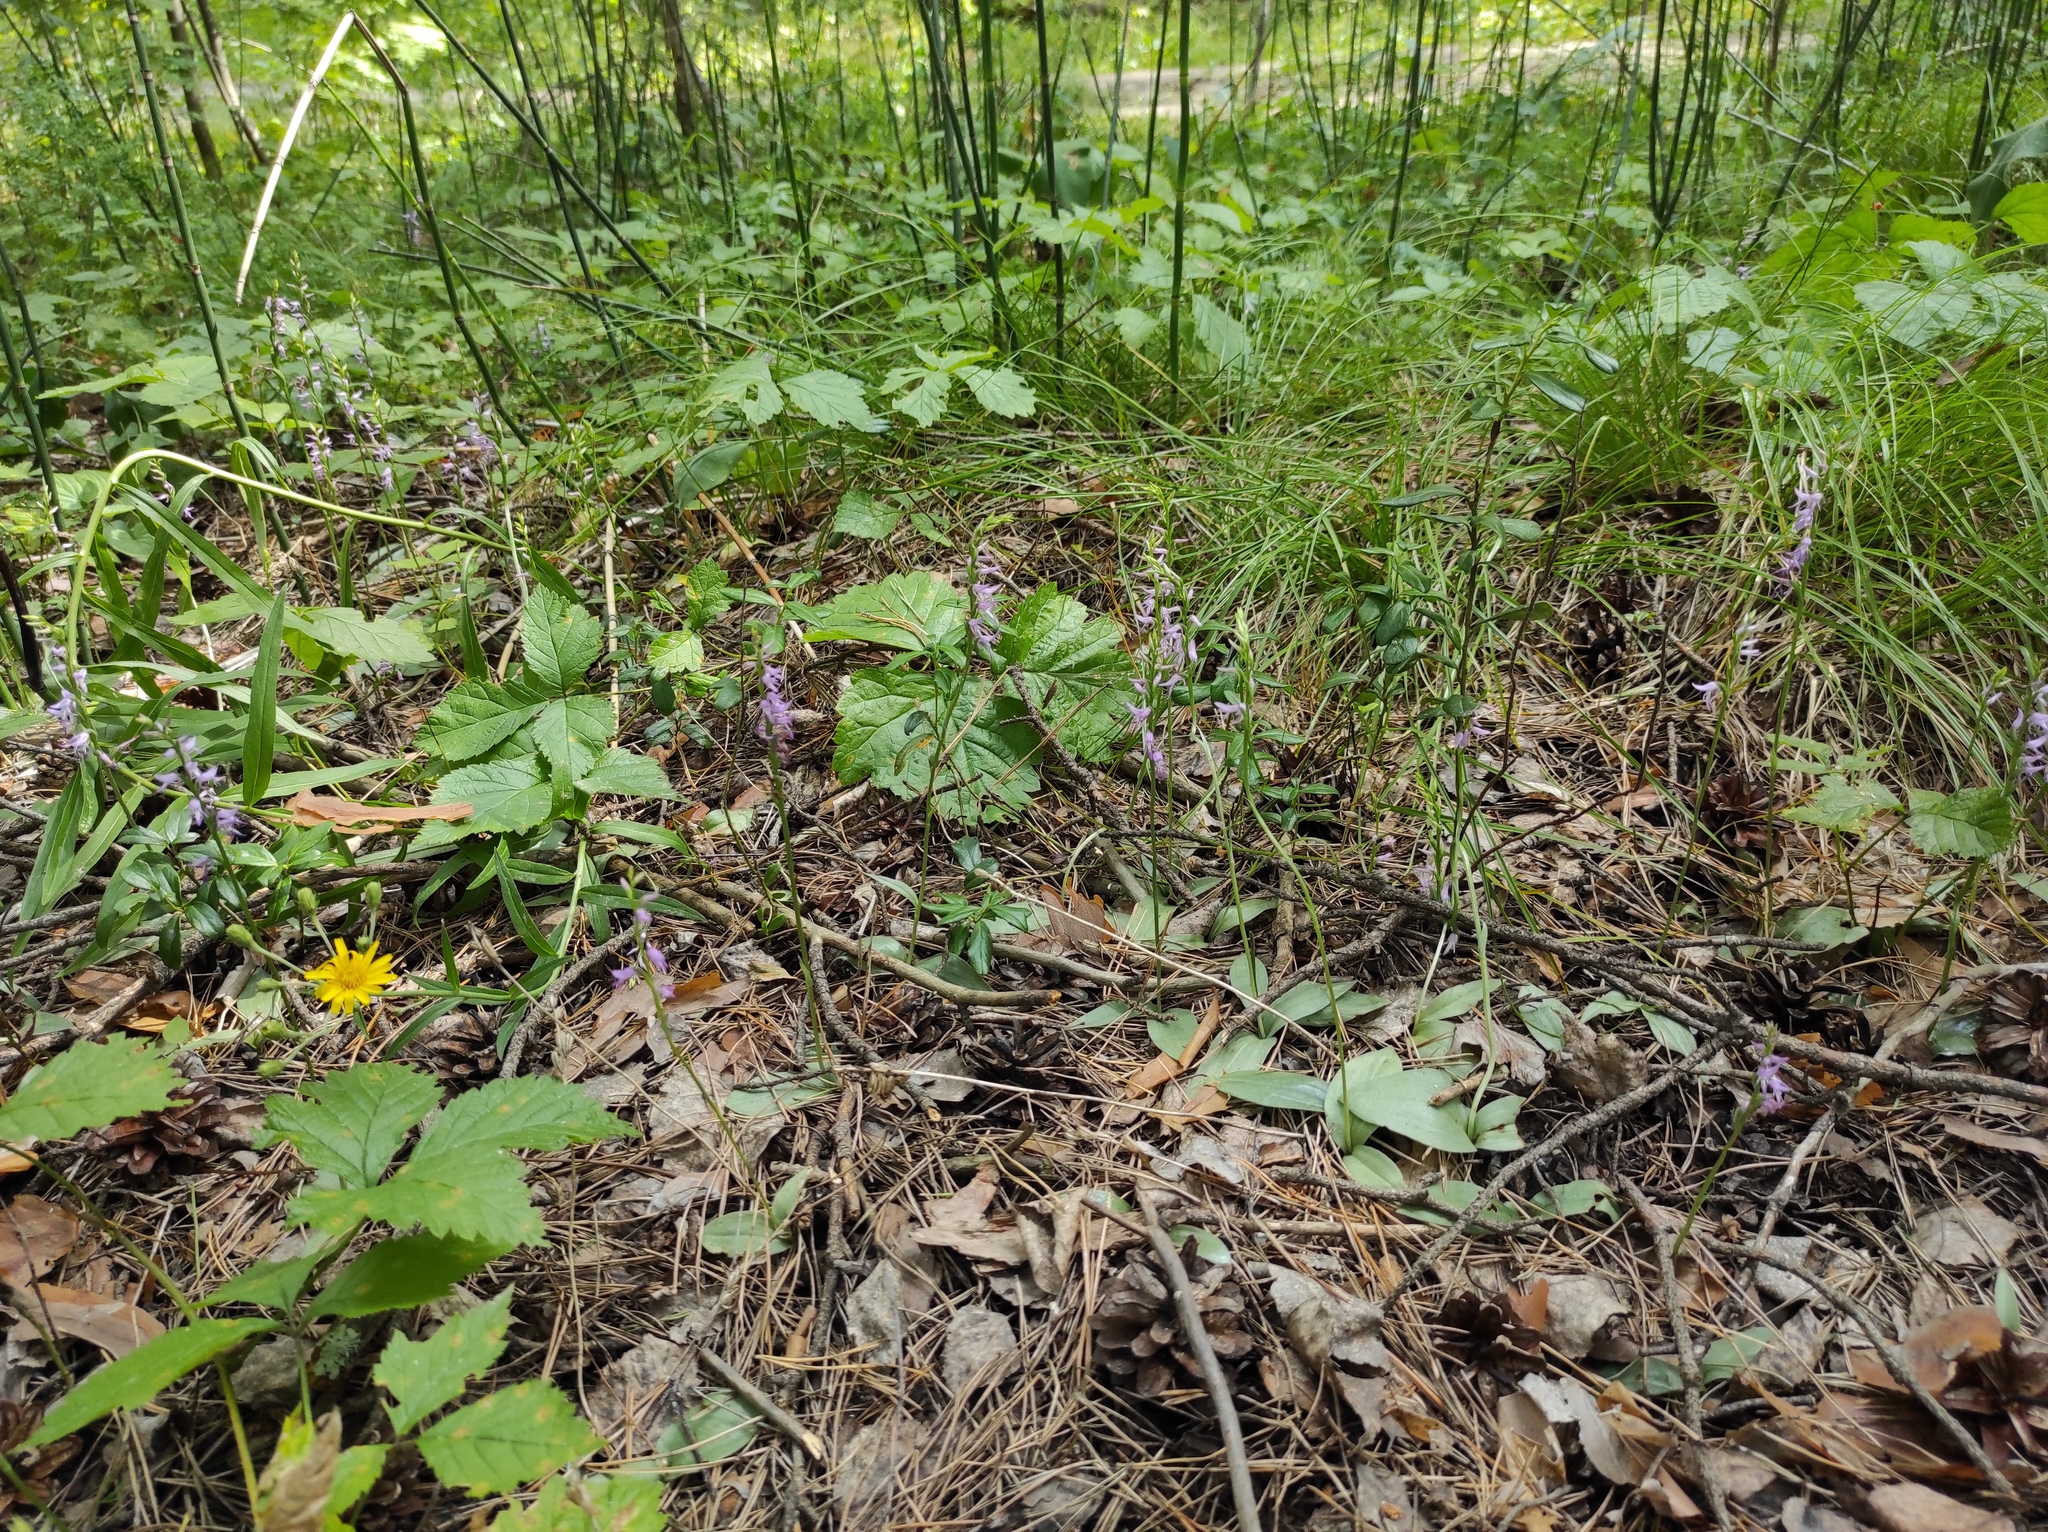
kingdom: Plantae
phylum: Tracheophyta
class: Liliopsida
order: Asparagales
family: Orchidaceae
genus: Hemipilia
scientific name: Hemipilia cucullata
